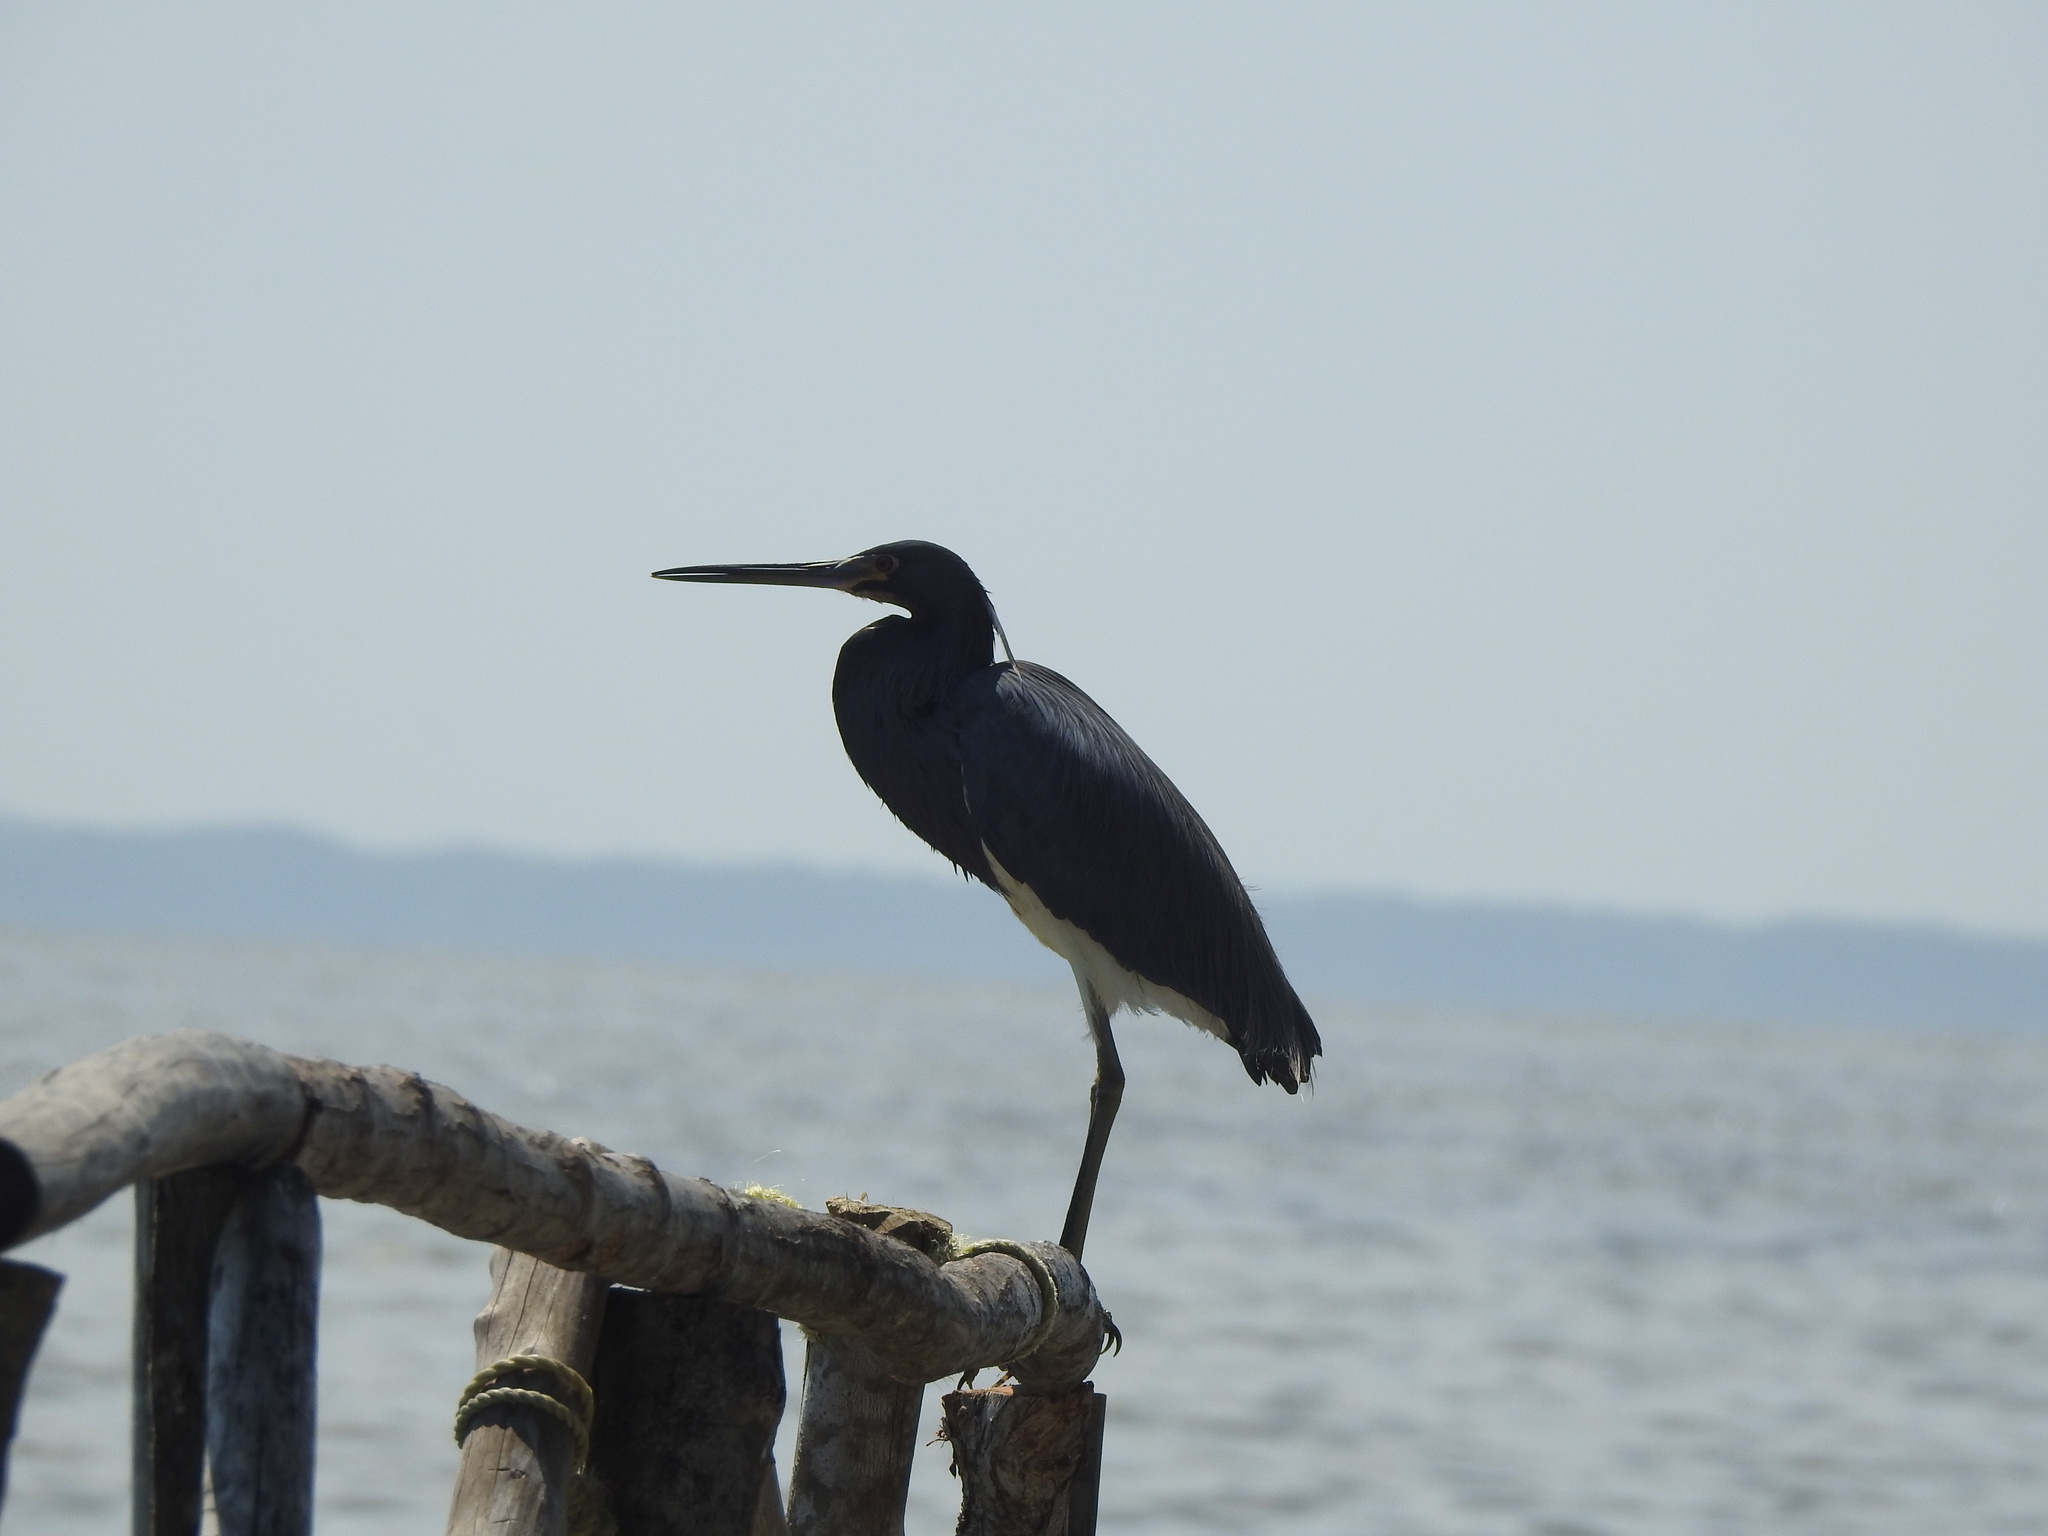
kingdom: Animalia
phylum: Chordata
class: Aves
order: Pelecaniformes
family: Ardeidae
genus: Egretta
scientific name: Egretta tricolor
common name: Tricolored heron
